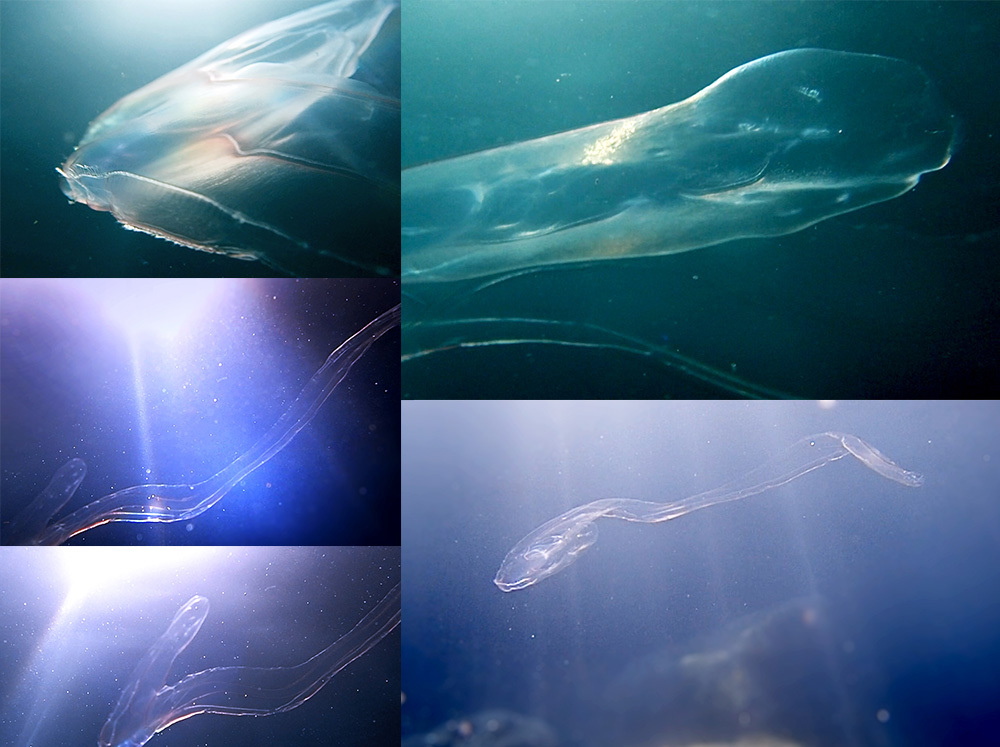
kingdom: Animalia
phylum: Ctenophora
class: Tentaculata
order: Cestida
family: Cestidae
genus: Cestum
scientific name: Cestum veneris
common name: Venus girdle
